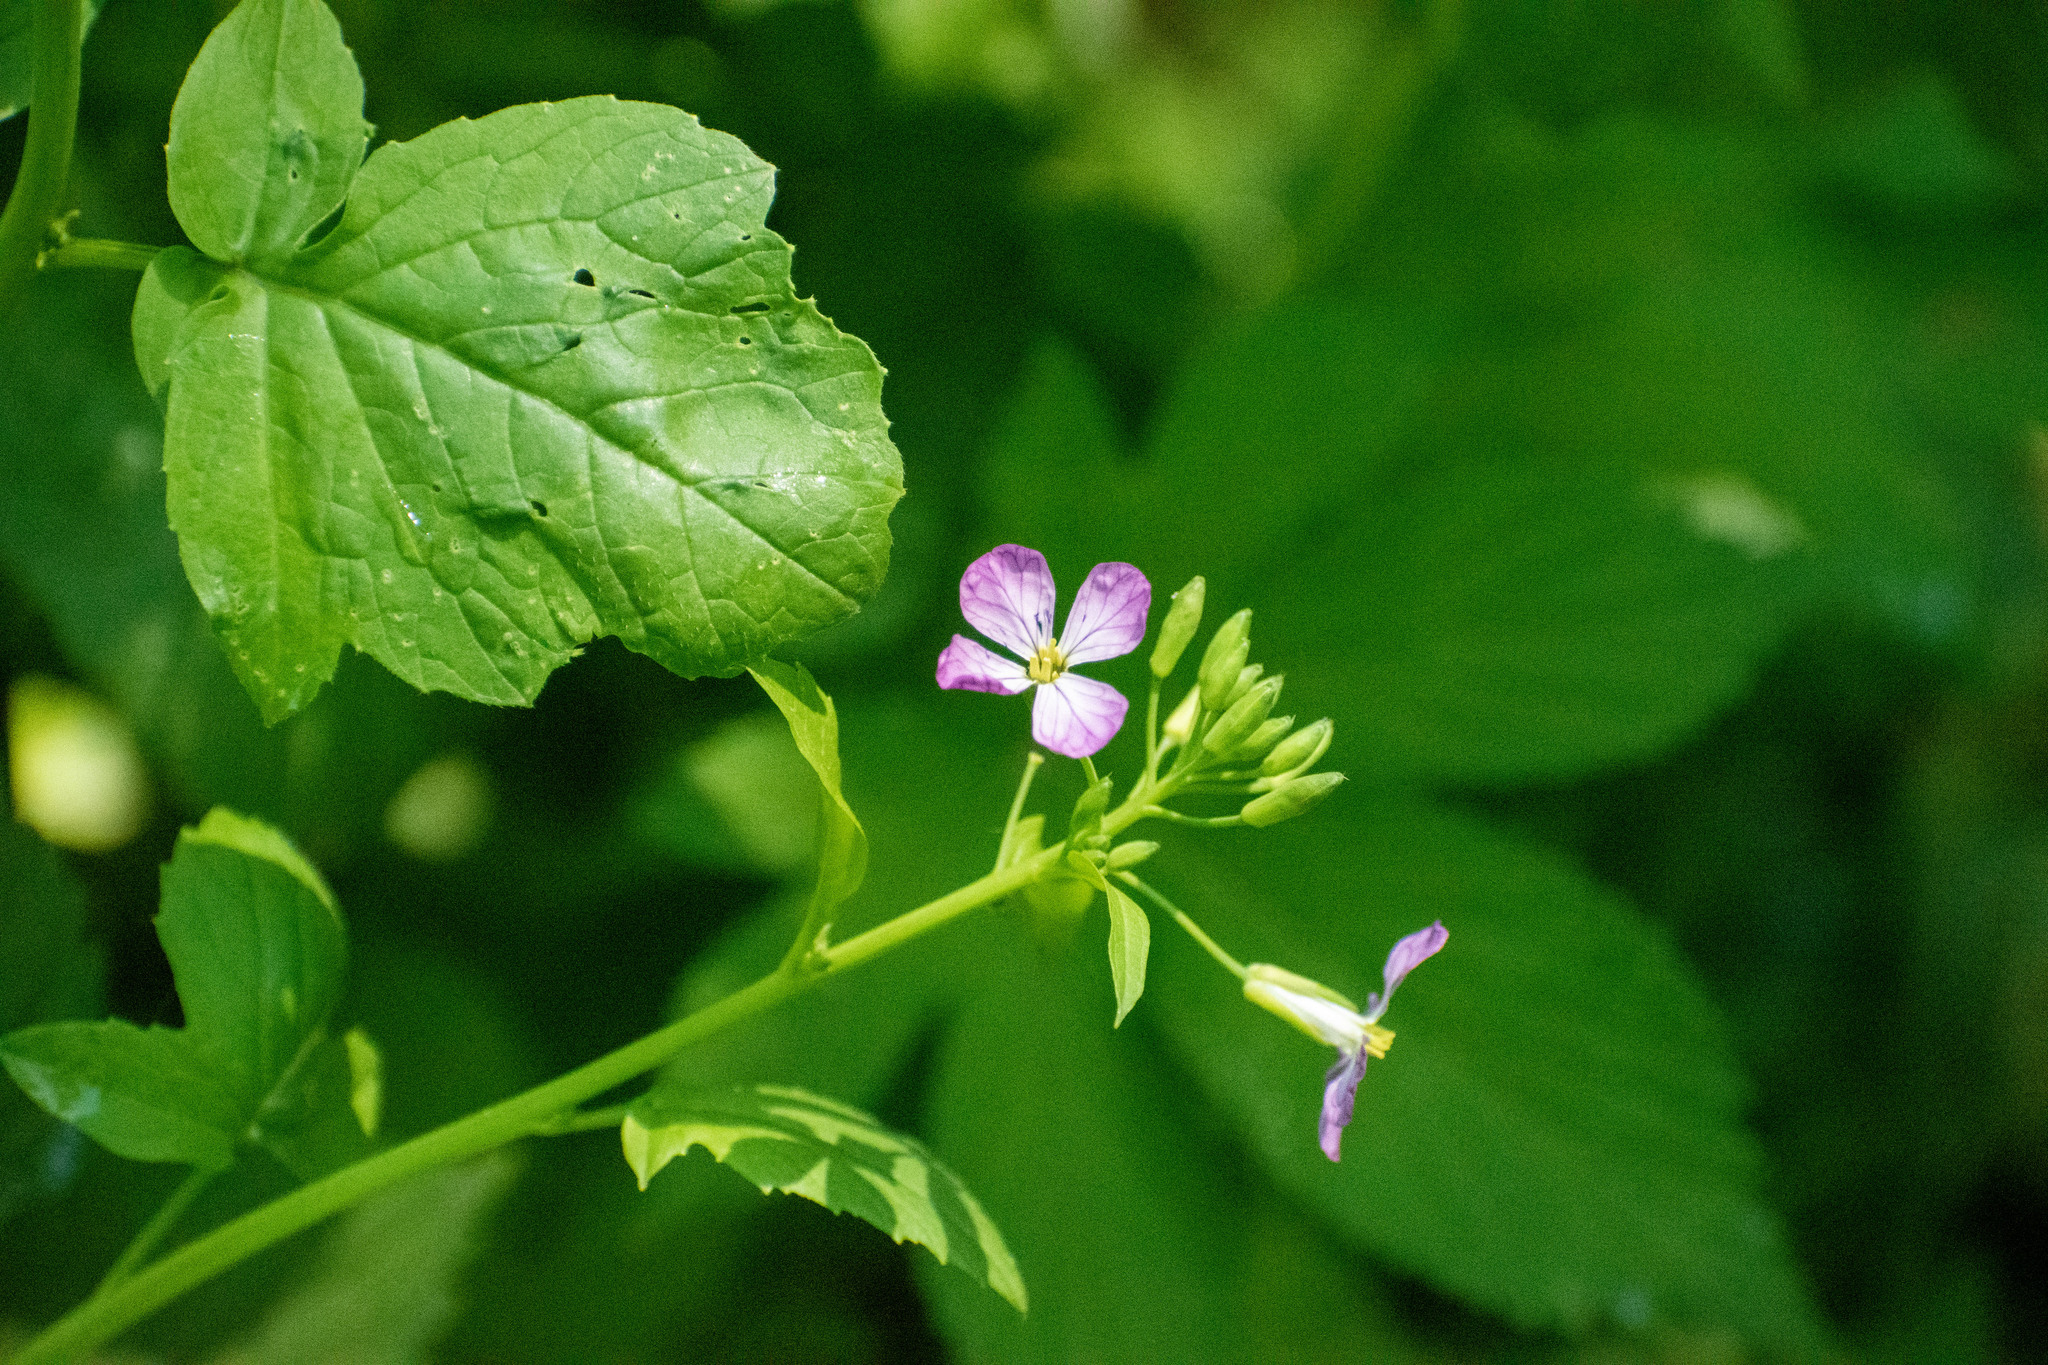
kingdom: Plantae
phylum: Tracheophyta
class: Magnoliopsida
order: Brassicales
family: Brassicaceae
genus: Raphanus
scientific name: Raphanus sativus
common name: Cultivated radish
